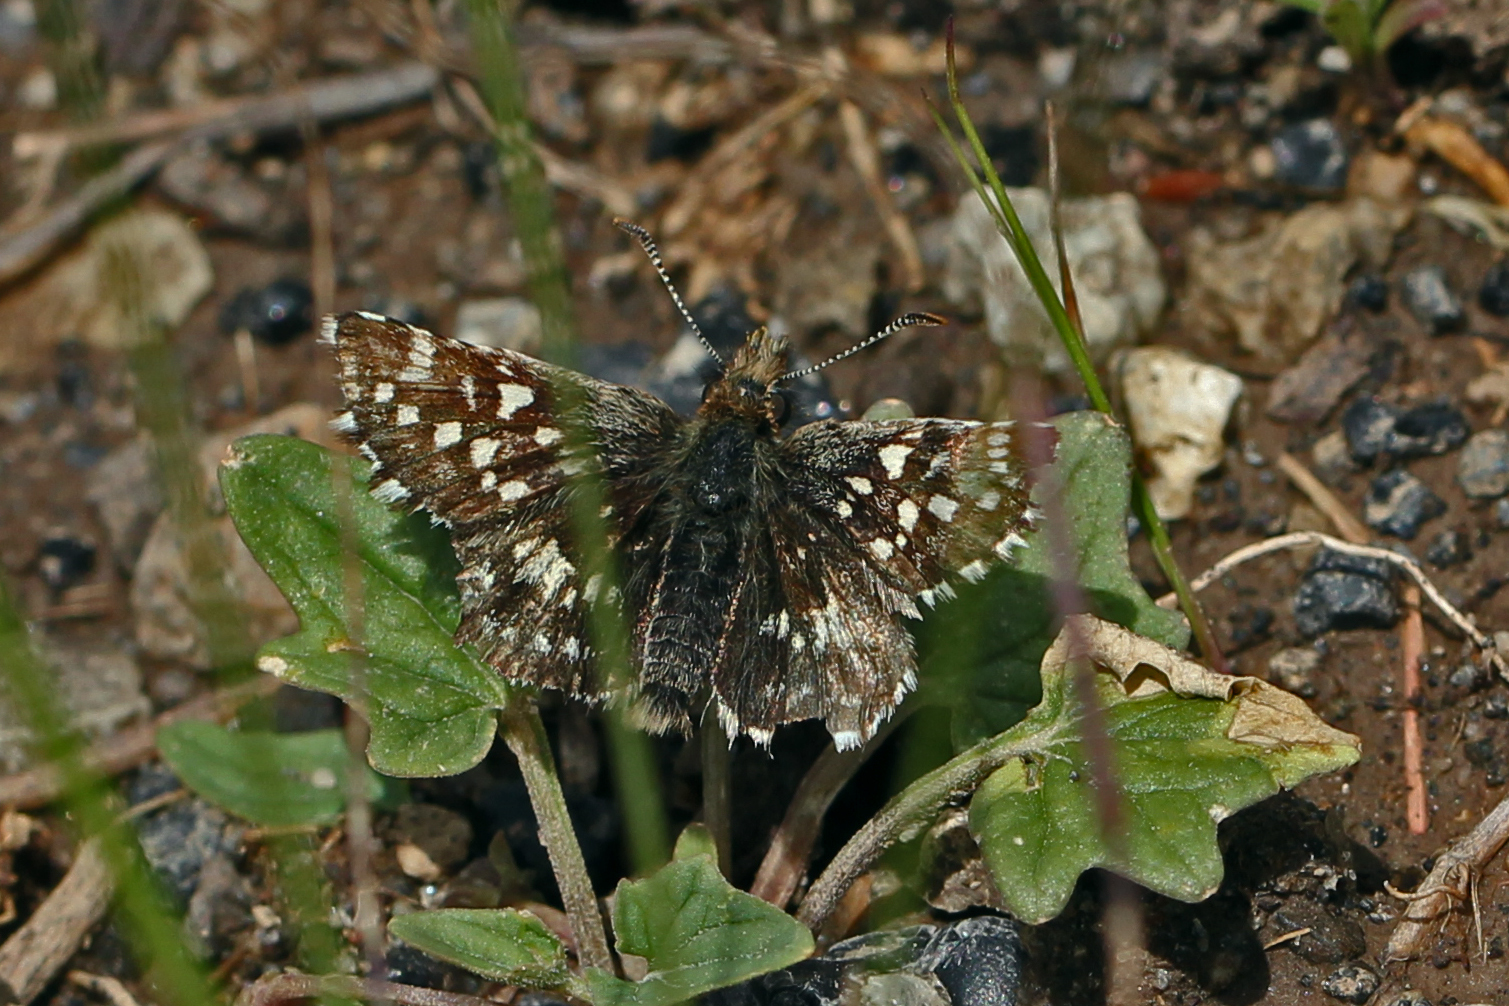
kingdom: Animalia
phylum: Arthropoda
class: Insecta
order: Lepidoptera
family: Hesperiidae
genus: Pyrgus
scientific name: Pyrgus ruralis
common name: Two-banded checkered-skipper
